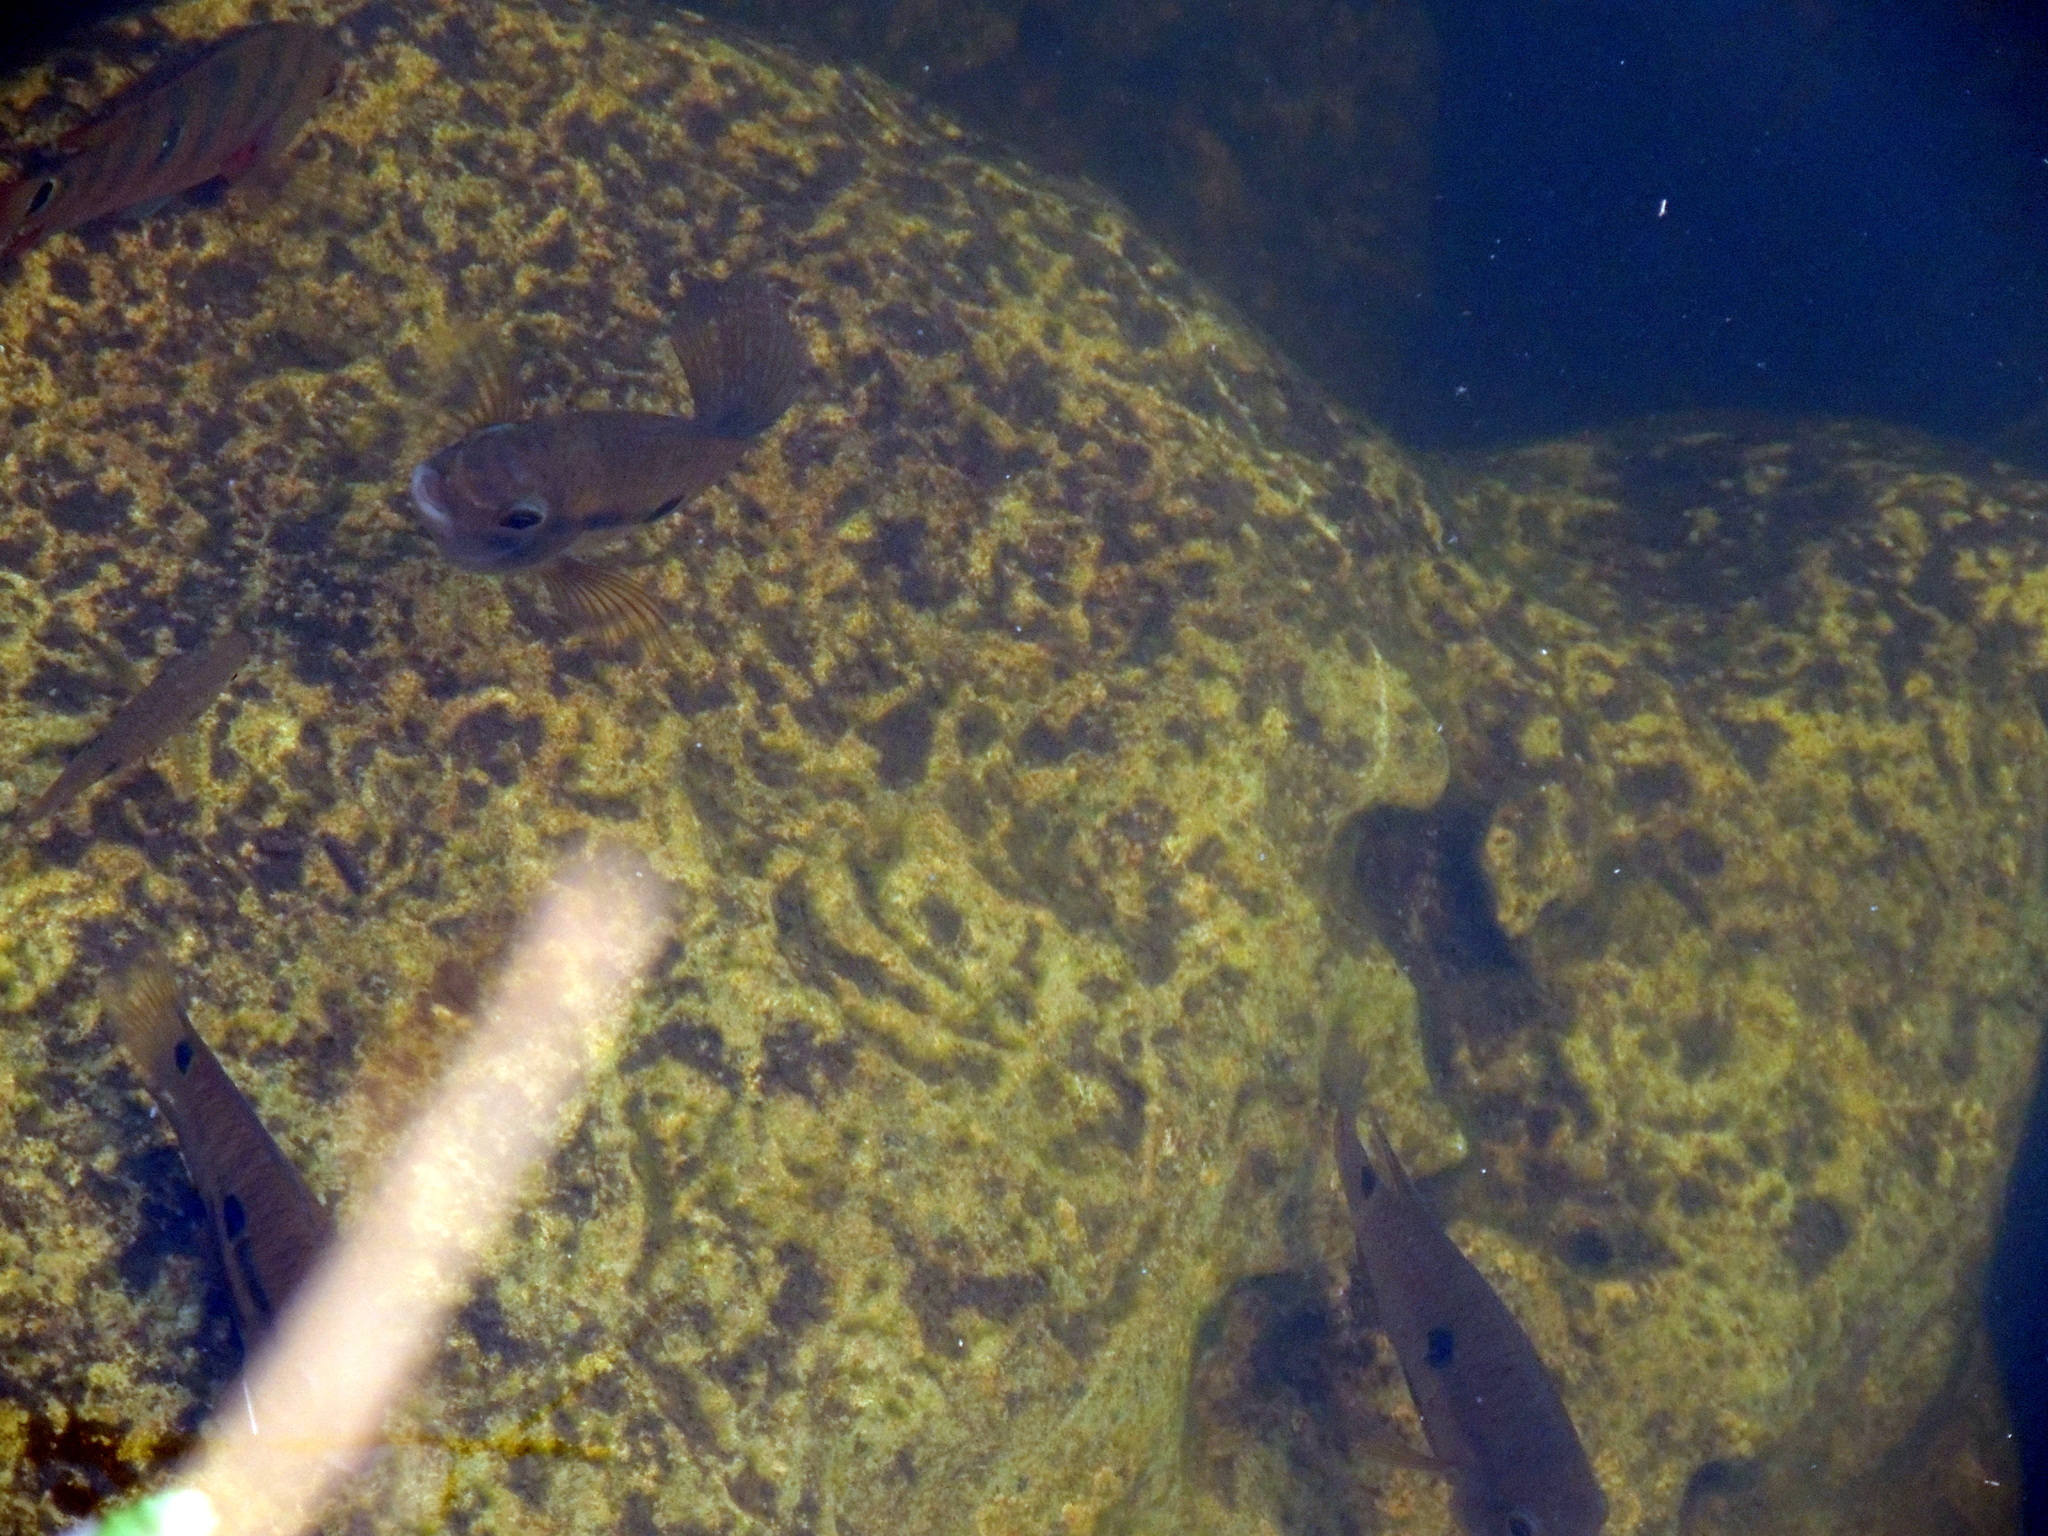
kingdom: Animalia
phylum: Chordata
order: Perciformes
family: Cichlidae
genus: Cichlasoma
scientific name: Cichlasoma bimaculatum
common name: Black acara
